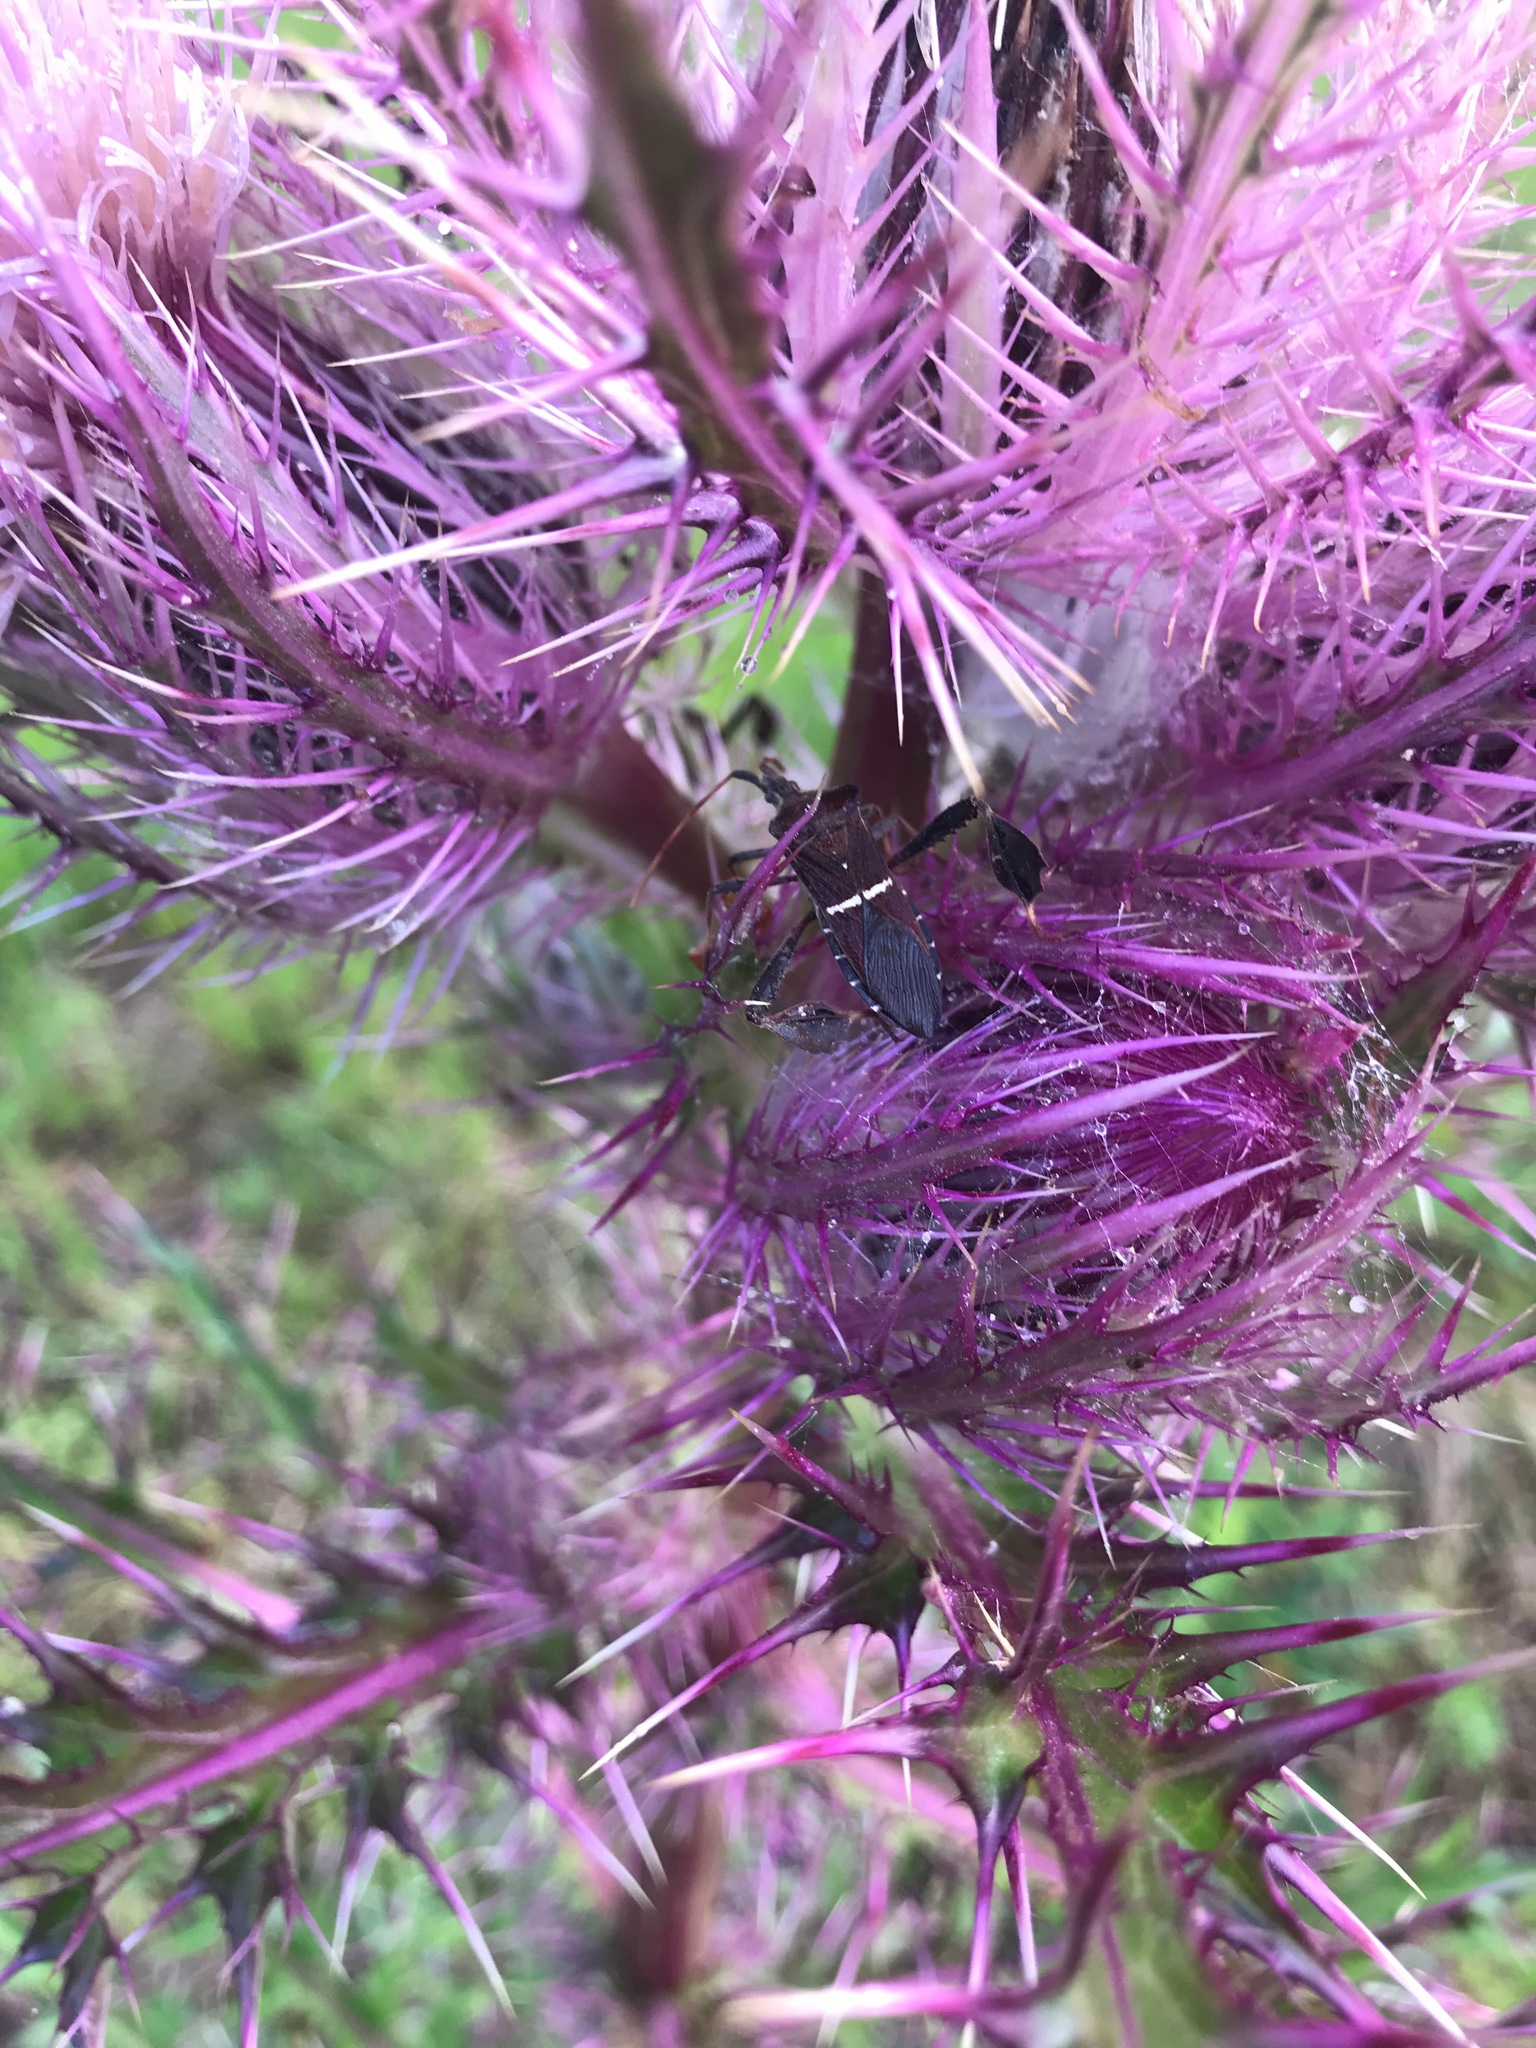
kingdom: Animalia
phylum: Arthropoda
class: Insecta
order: Hemiptera
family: Coreidae
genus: Leptoglossus
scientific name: Leptoglossus phyllopus
